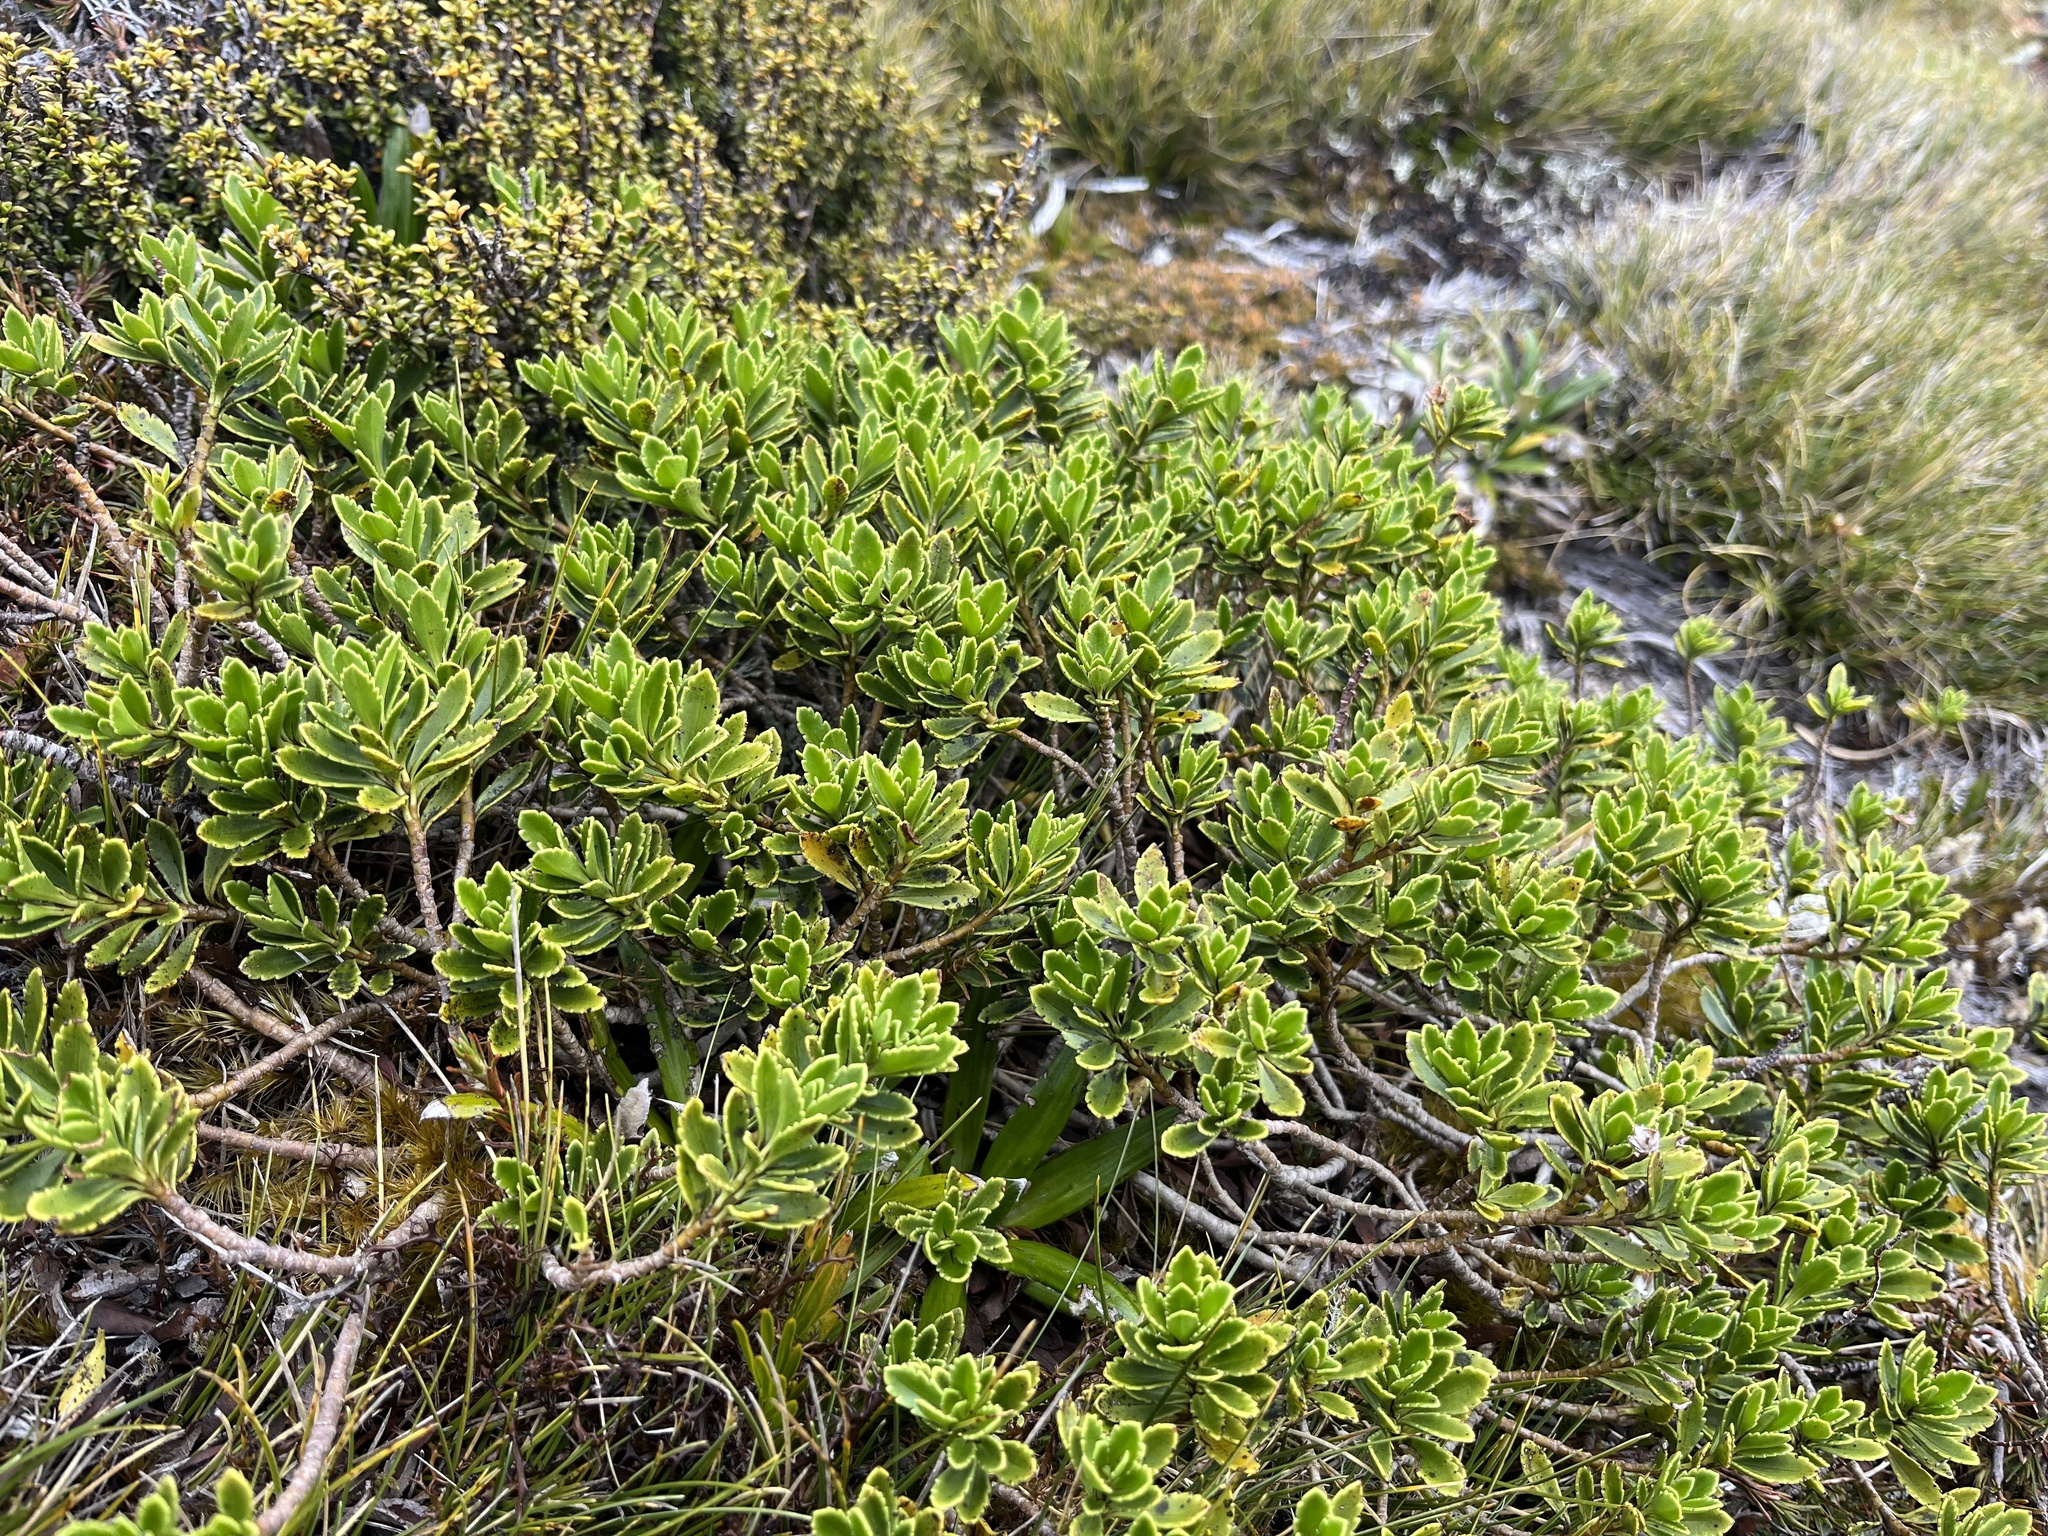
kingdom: Plantae
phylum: Tracheophyta
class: Magnoliopsida
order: Lamiales
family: Plantaginaceae
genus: Veronica
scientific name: Veronica macrantha
